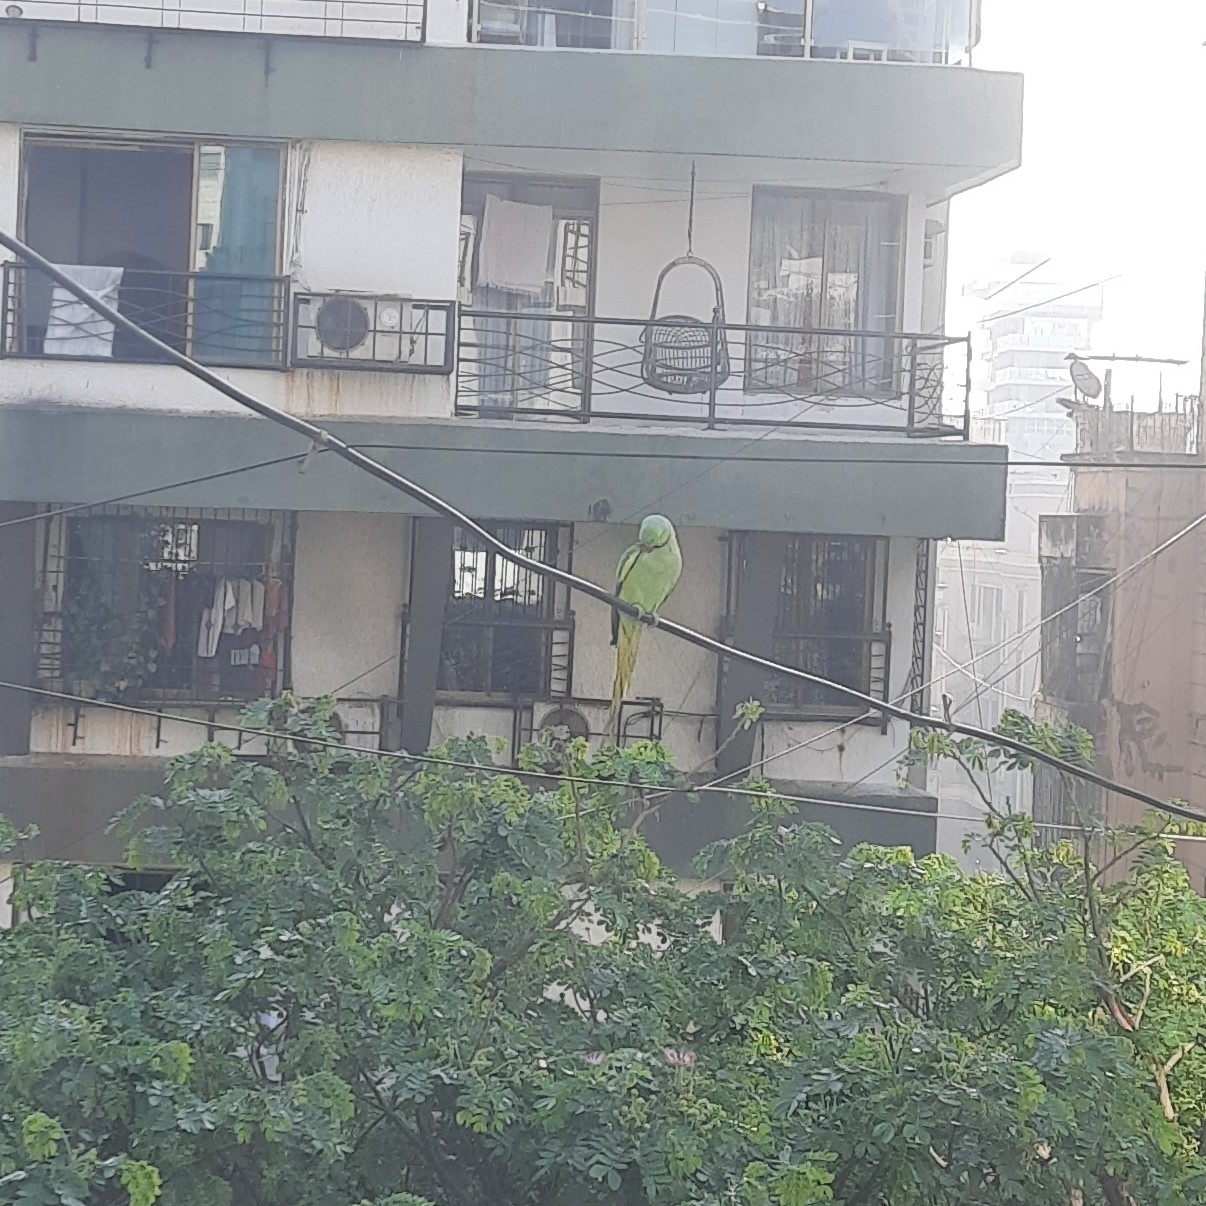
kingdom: Animalia
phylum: Chordata
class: Aves
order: Psittaciformes
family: Psittacidae
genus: Psittacula
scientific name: Psittacula krameri
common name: Rose-ringed parakeet
